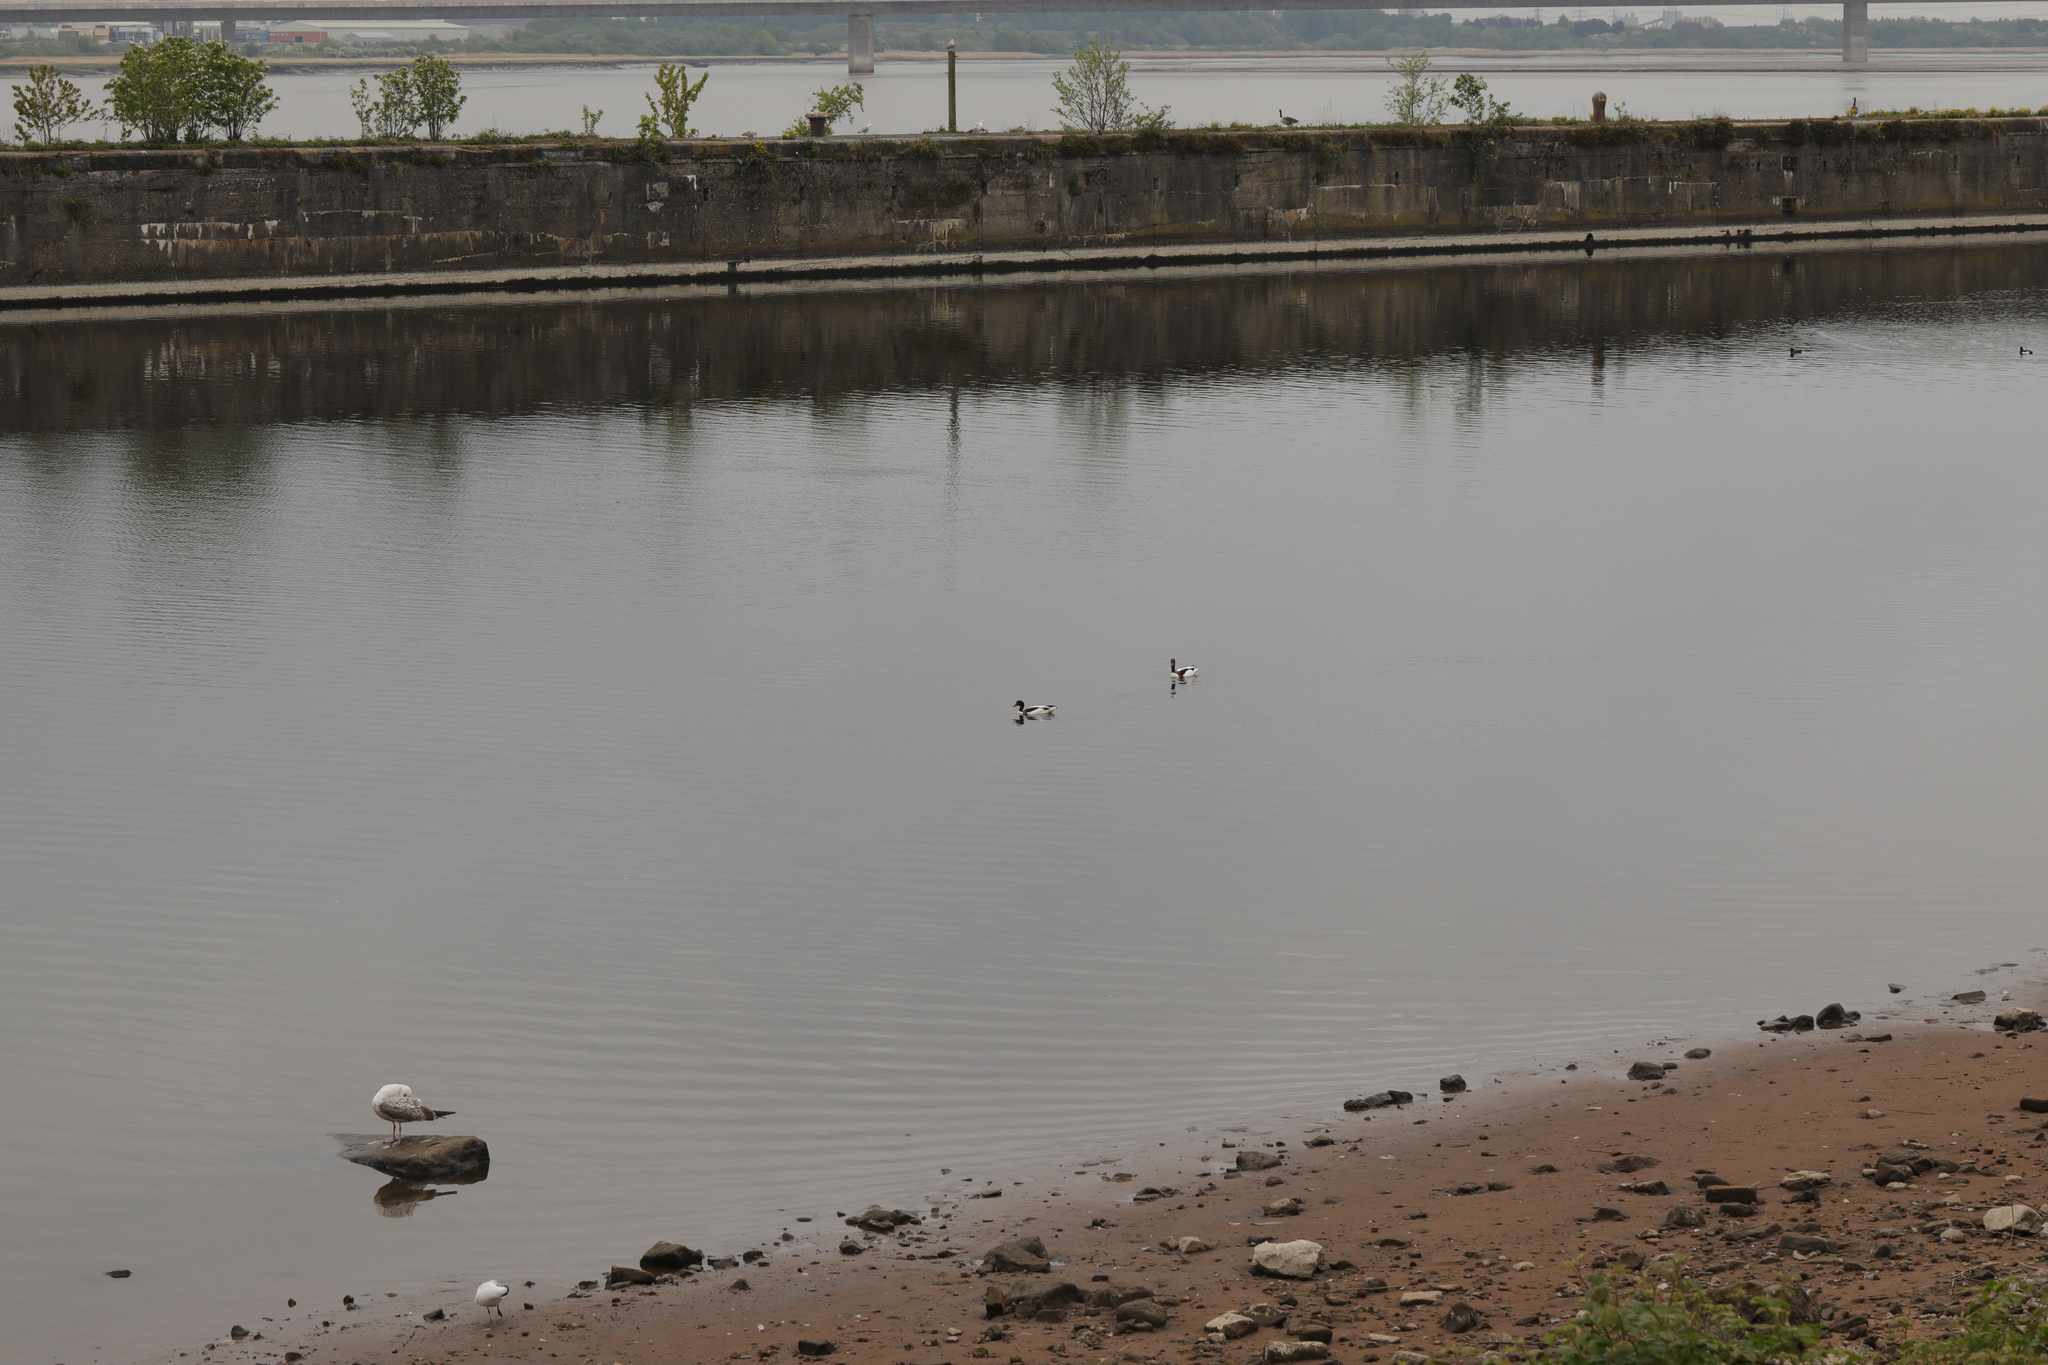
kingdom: Animalia
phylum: Chordata
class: Aves
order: Anseriformes
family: Anatidae
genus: Tadorna
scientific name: Tadorna tadorna
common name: Common shelduck
